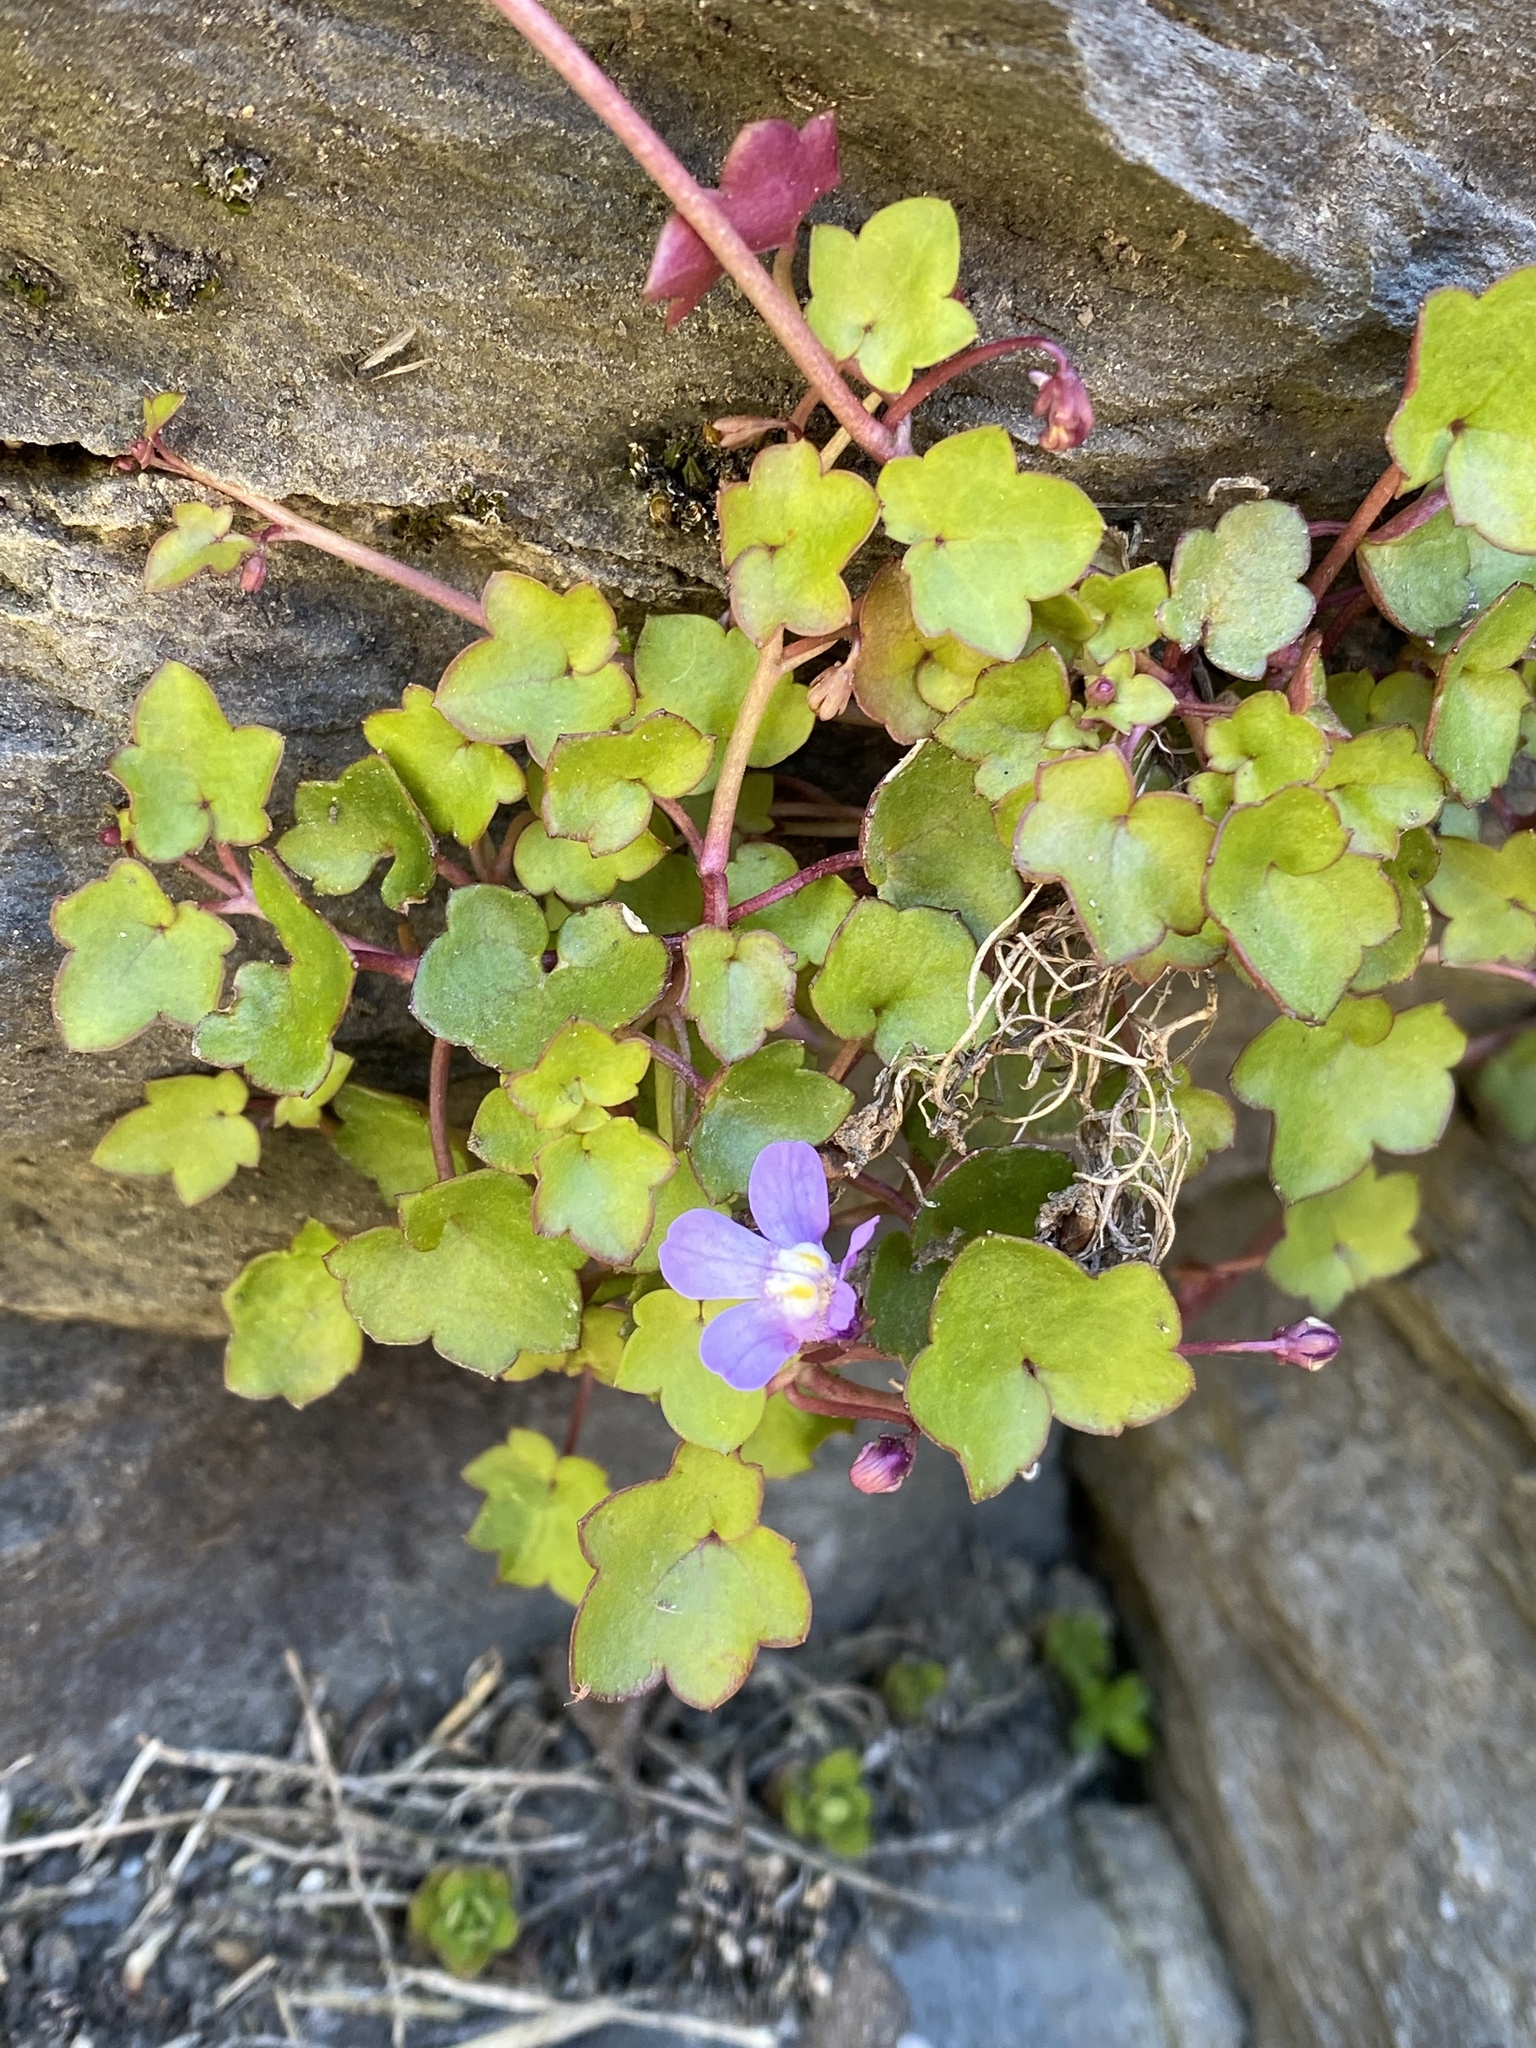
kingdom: Plantae
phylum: Tracheophyta
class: Magnoliopsida
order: Lamiales
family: Plantaginaceae
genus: Cymbalaria
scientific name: Cymbalaria muralis
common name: Ivy-leaved toadflax
